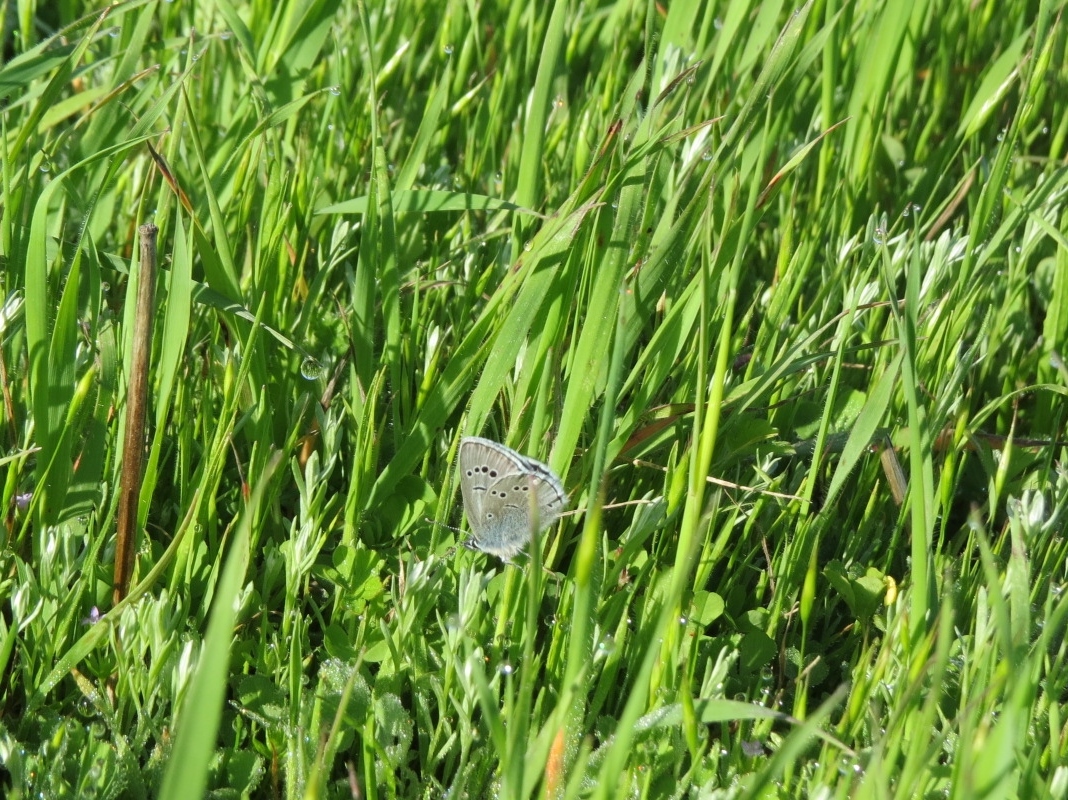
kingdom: Animalia
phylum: Arthropoda
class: Insecta
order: Lepidoptera
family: Lycaenidae
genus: Glaucopsyche
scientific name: Glaucopsyche lygdamus
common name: Silvery blue
